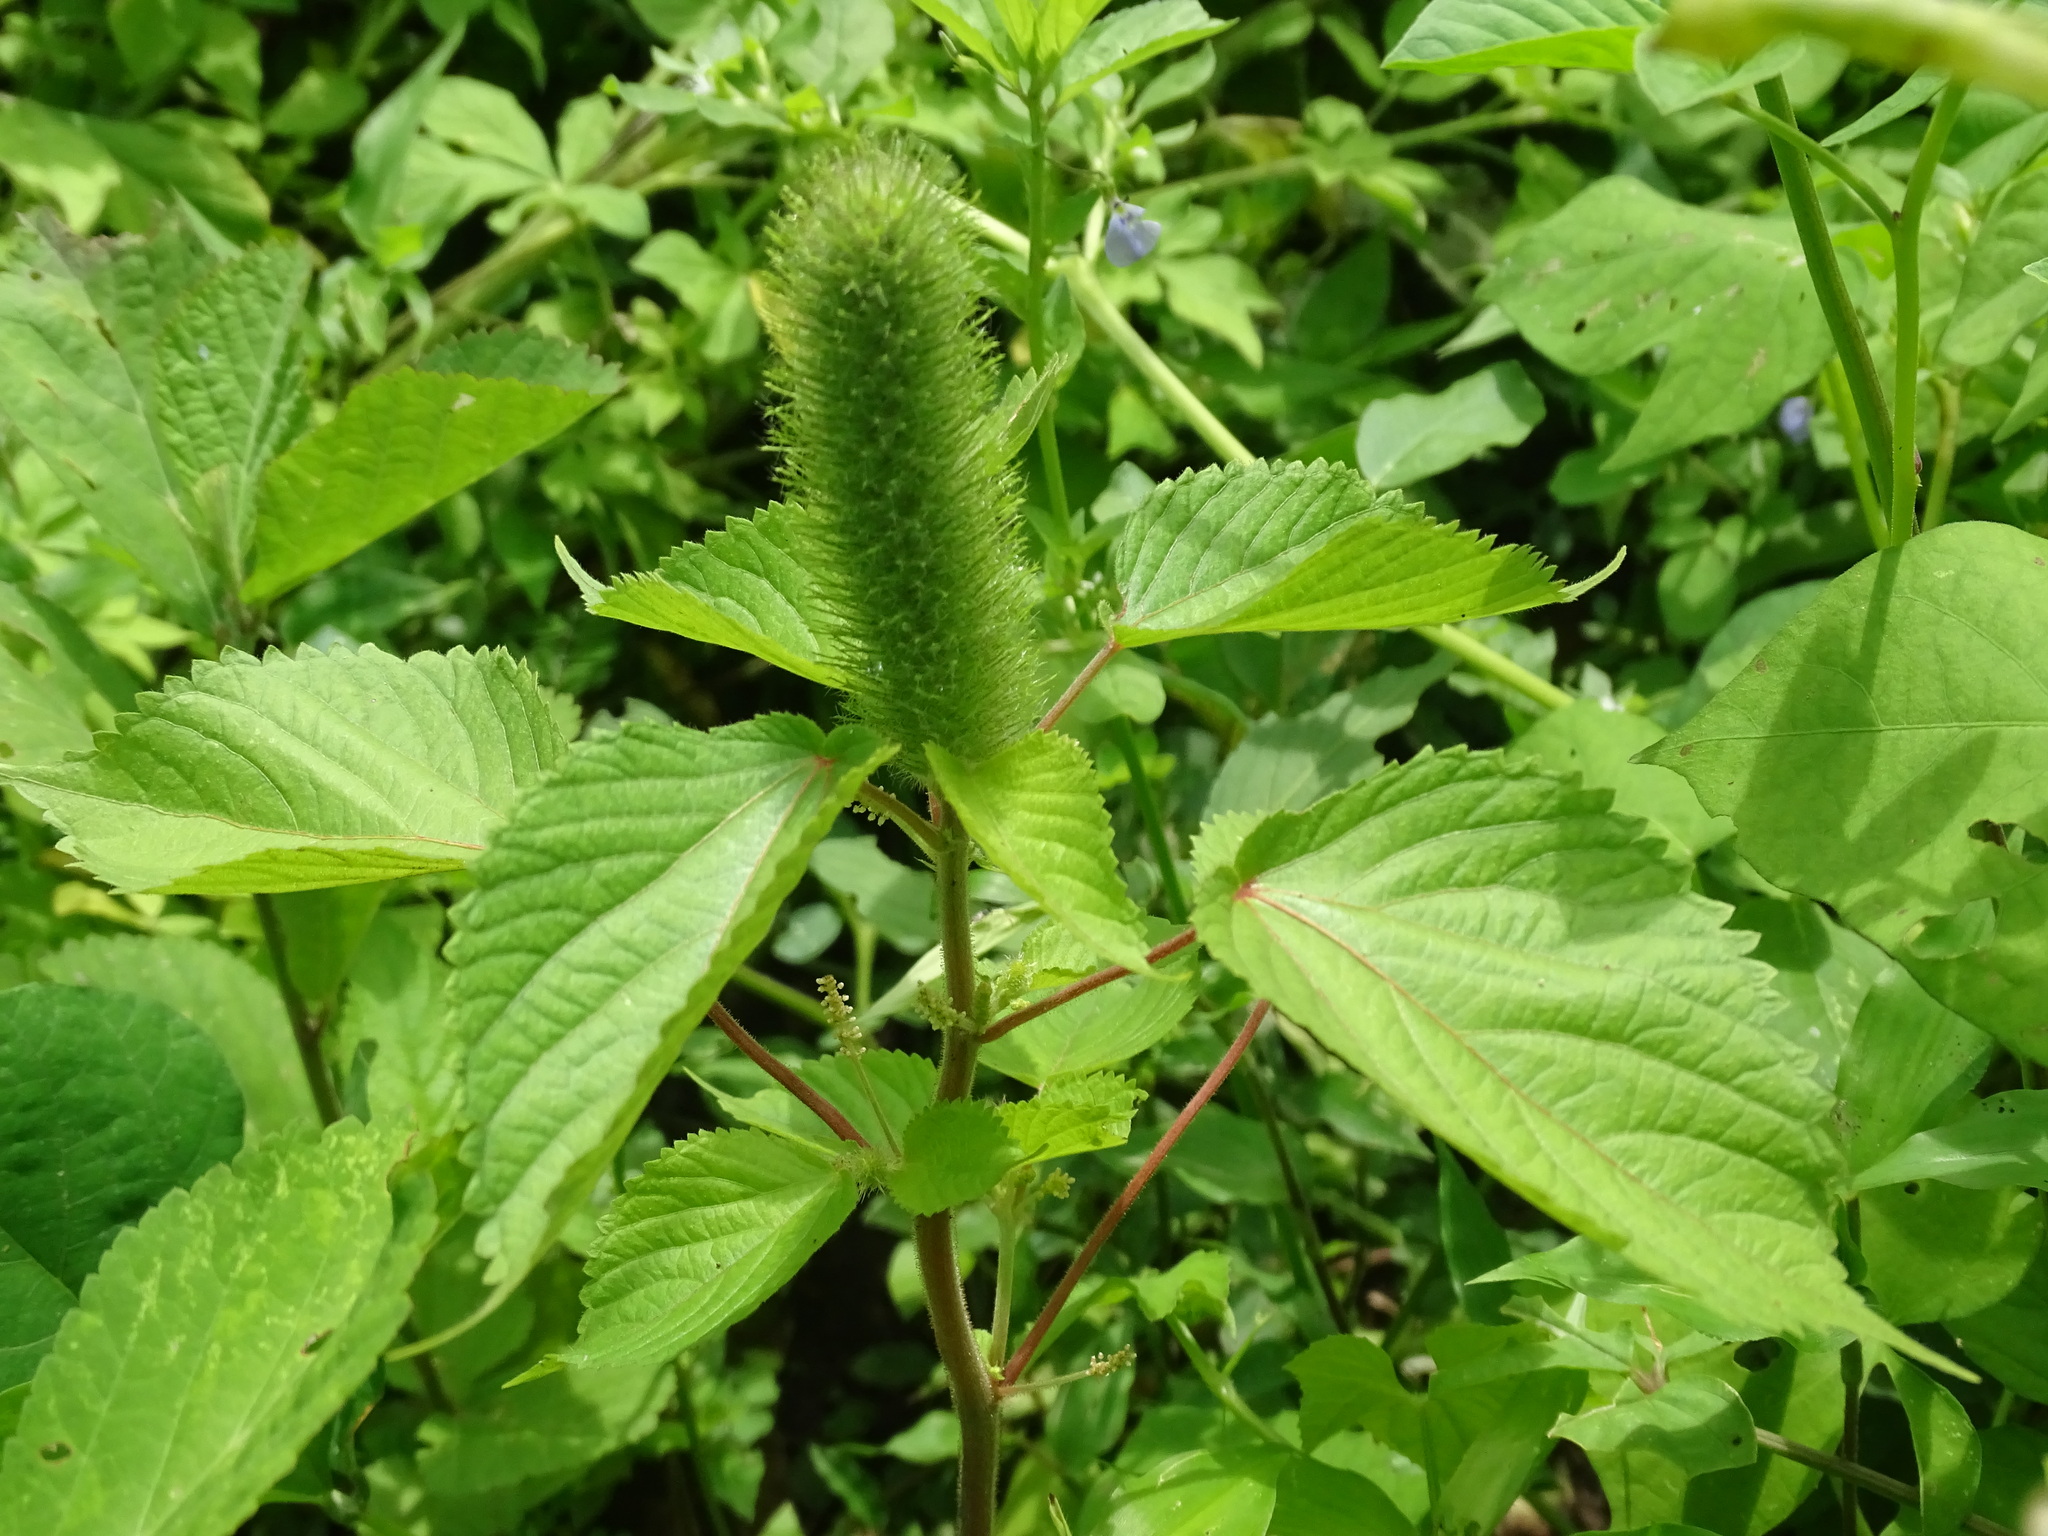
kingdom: Plantae
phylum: Tracheophyta
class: Magnoliopsida
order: Malpighiales
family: Euphorbiaceae
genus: Acalypha
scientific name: Acalypha alopecuroidea
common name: Foxtail copperleaf
